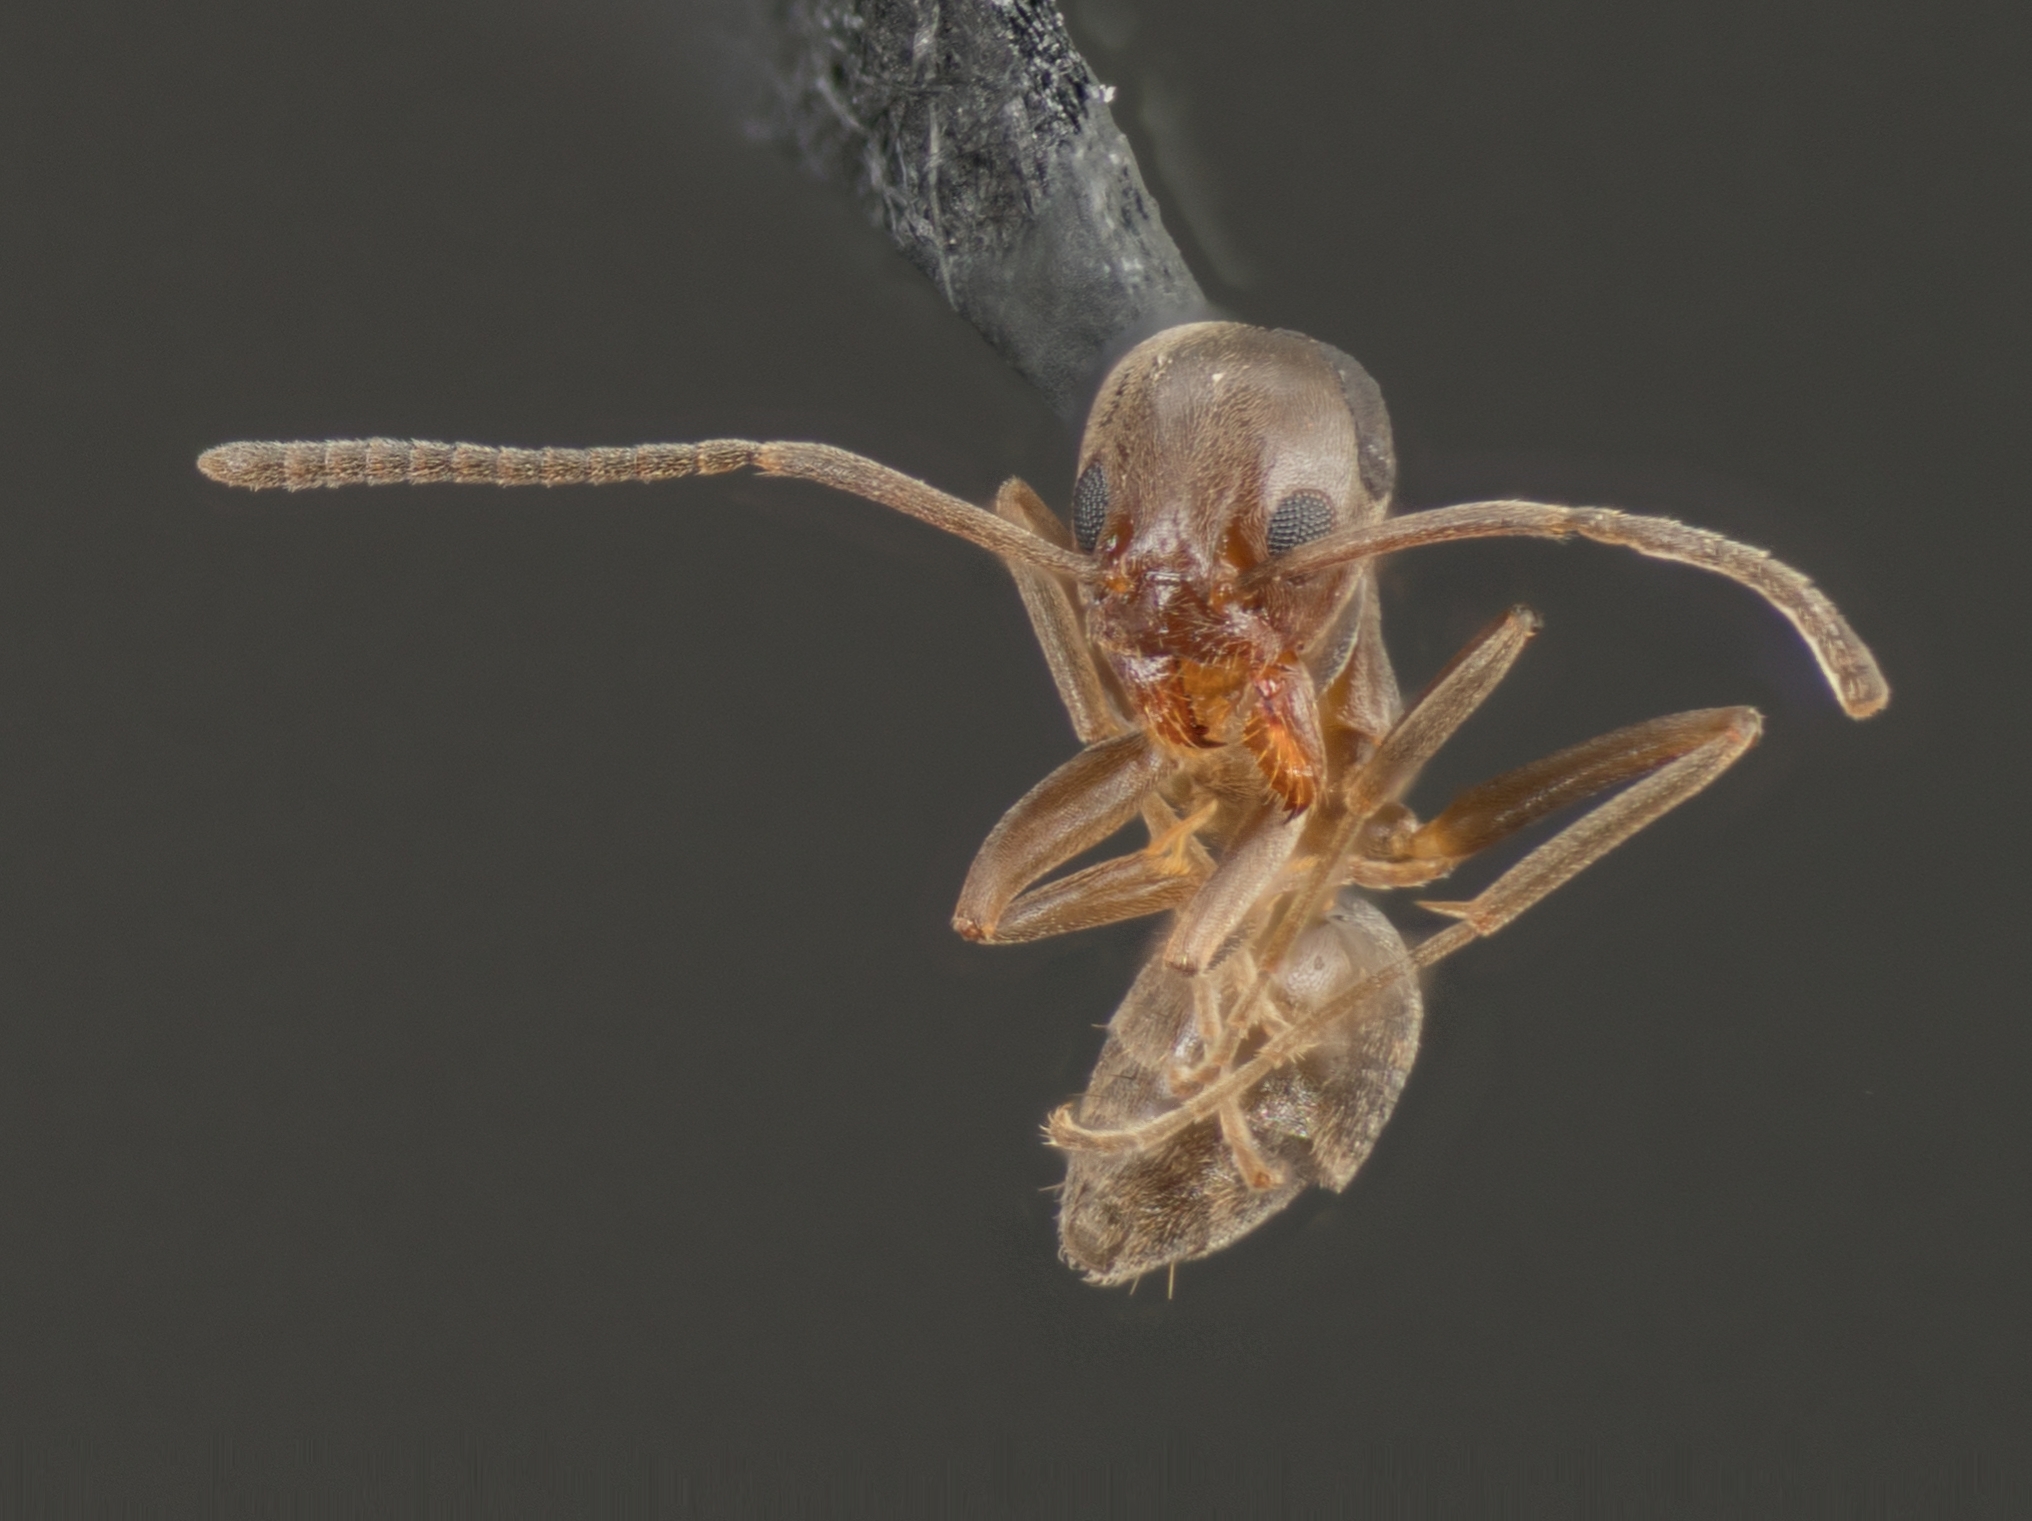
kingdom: Animalia
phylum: Arthropoda
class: Insecta
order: Hymenoptera
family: Formicidae
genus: Linepithema
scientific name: Linepithema humile
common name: Argentine ant
